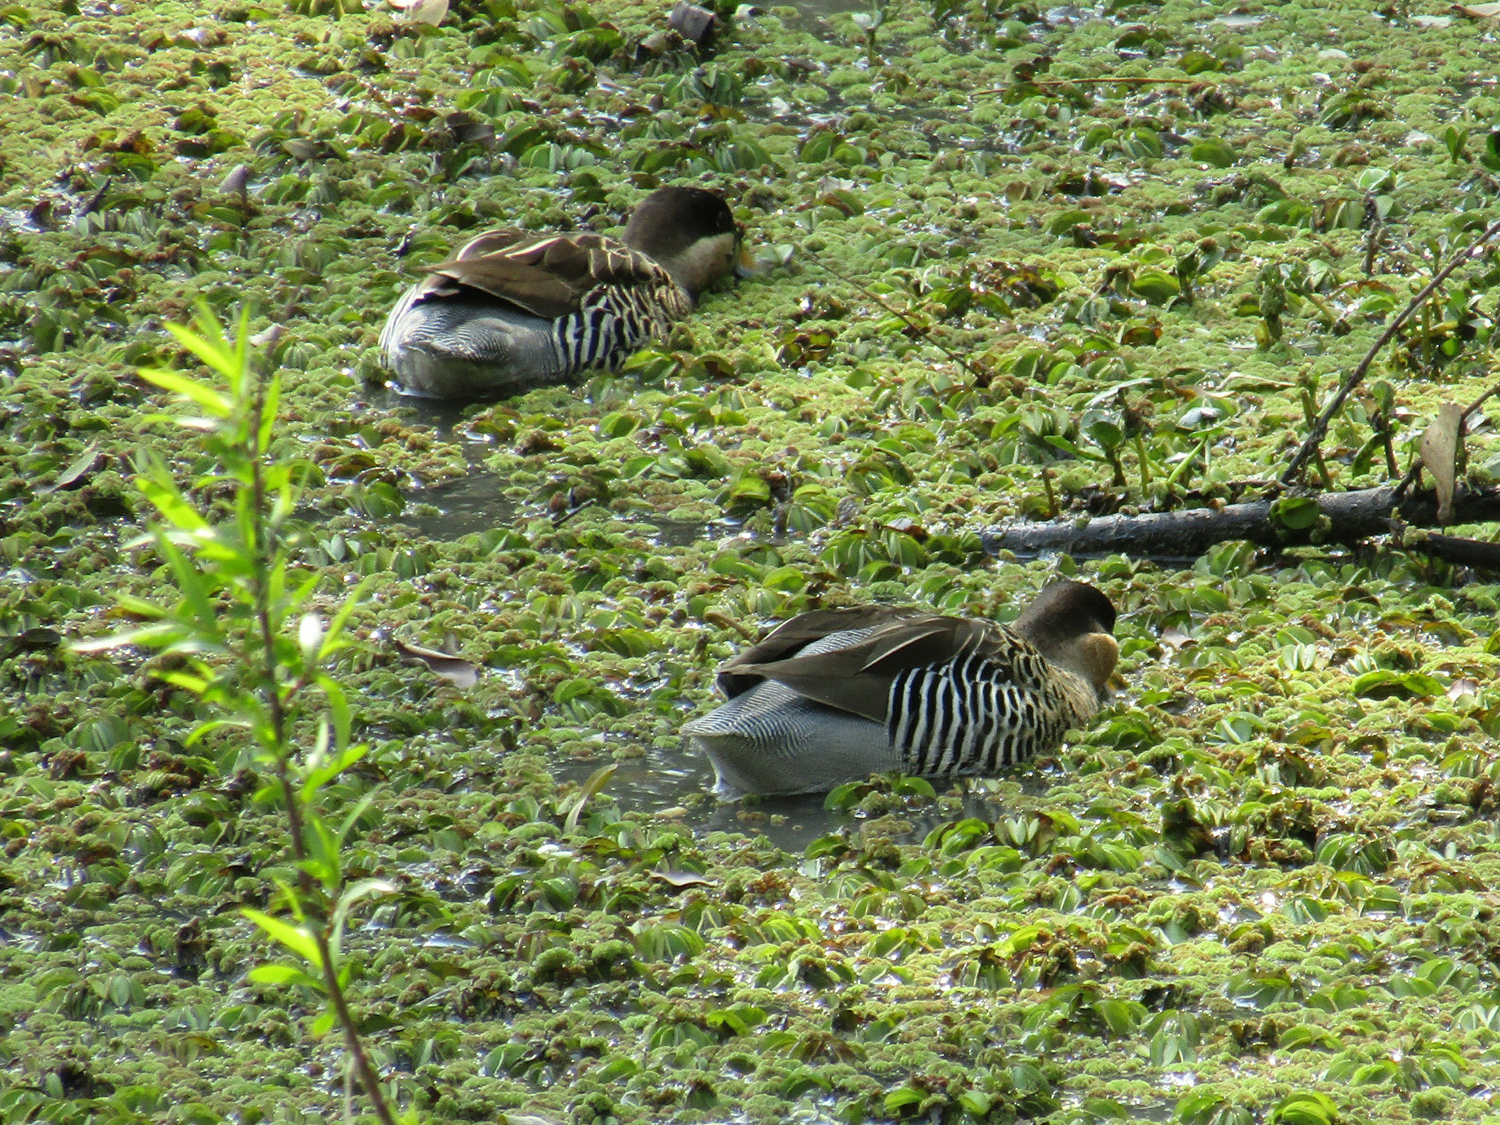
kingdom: Animalia
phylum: Chordata
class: Aves
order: Anseriformes
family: Anatidae
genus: Spatula
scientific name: Spatula versicolor
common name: Silver teal
